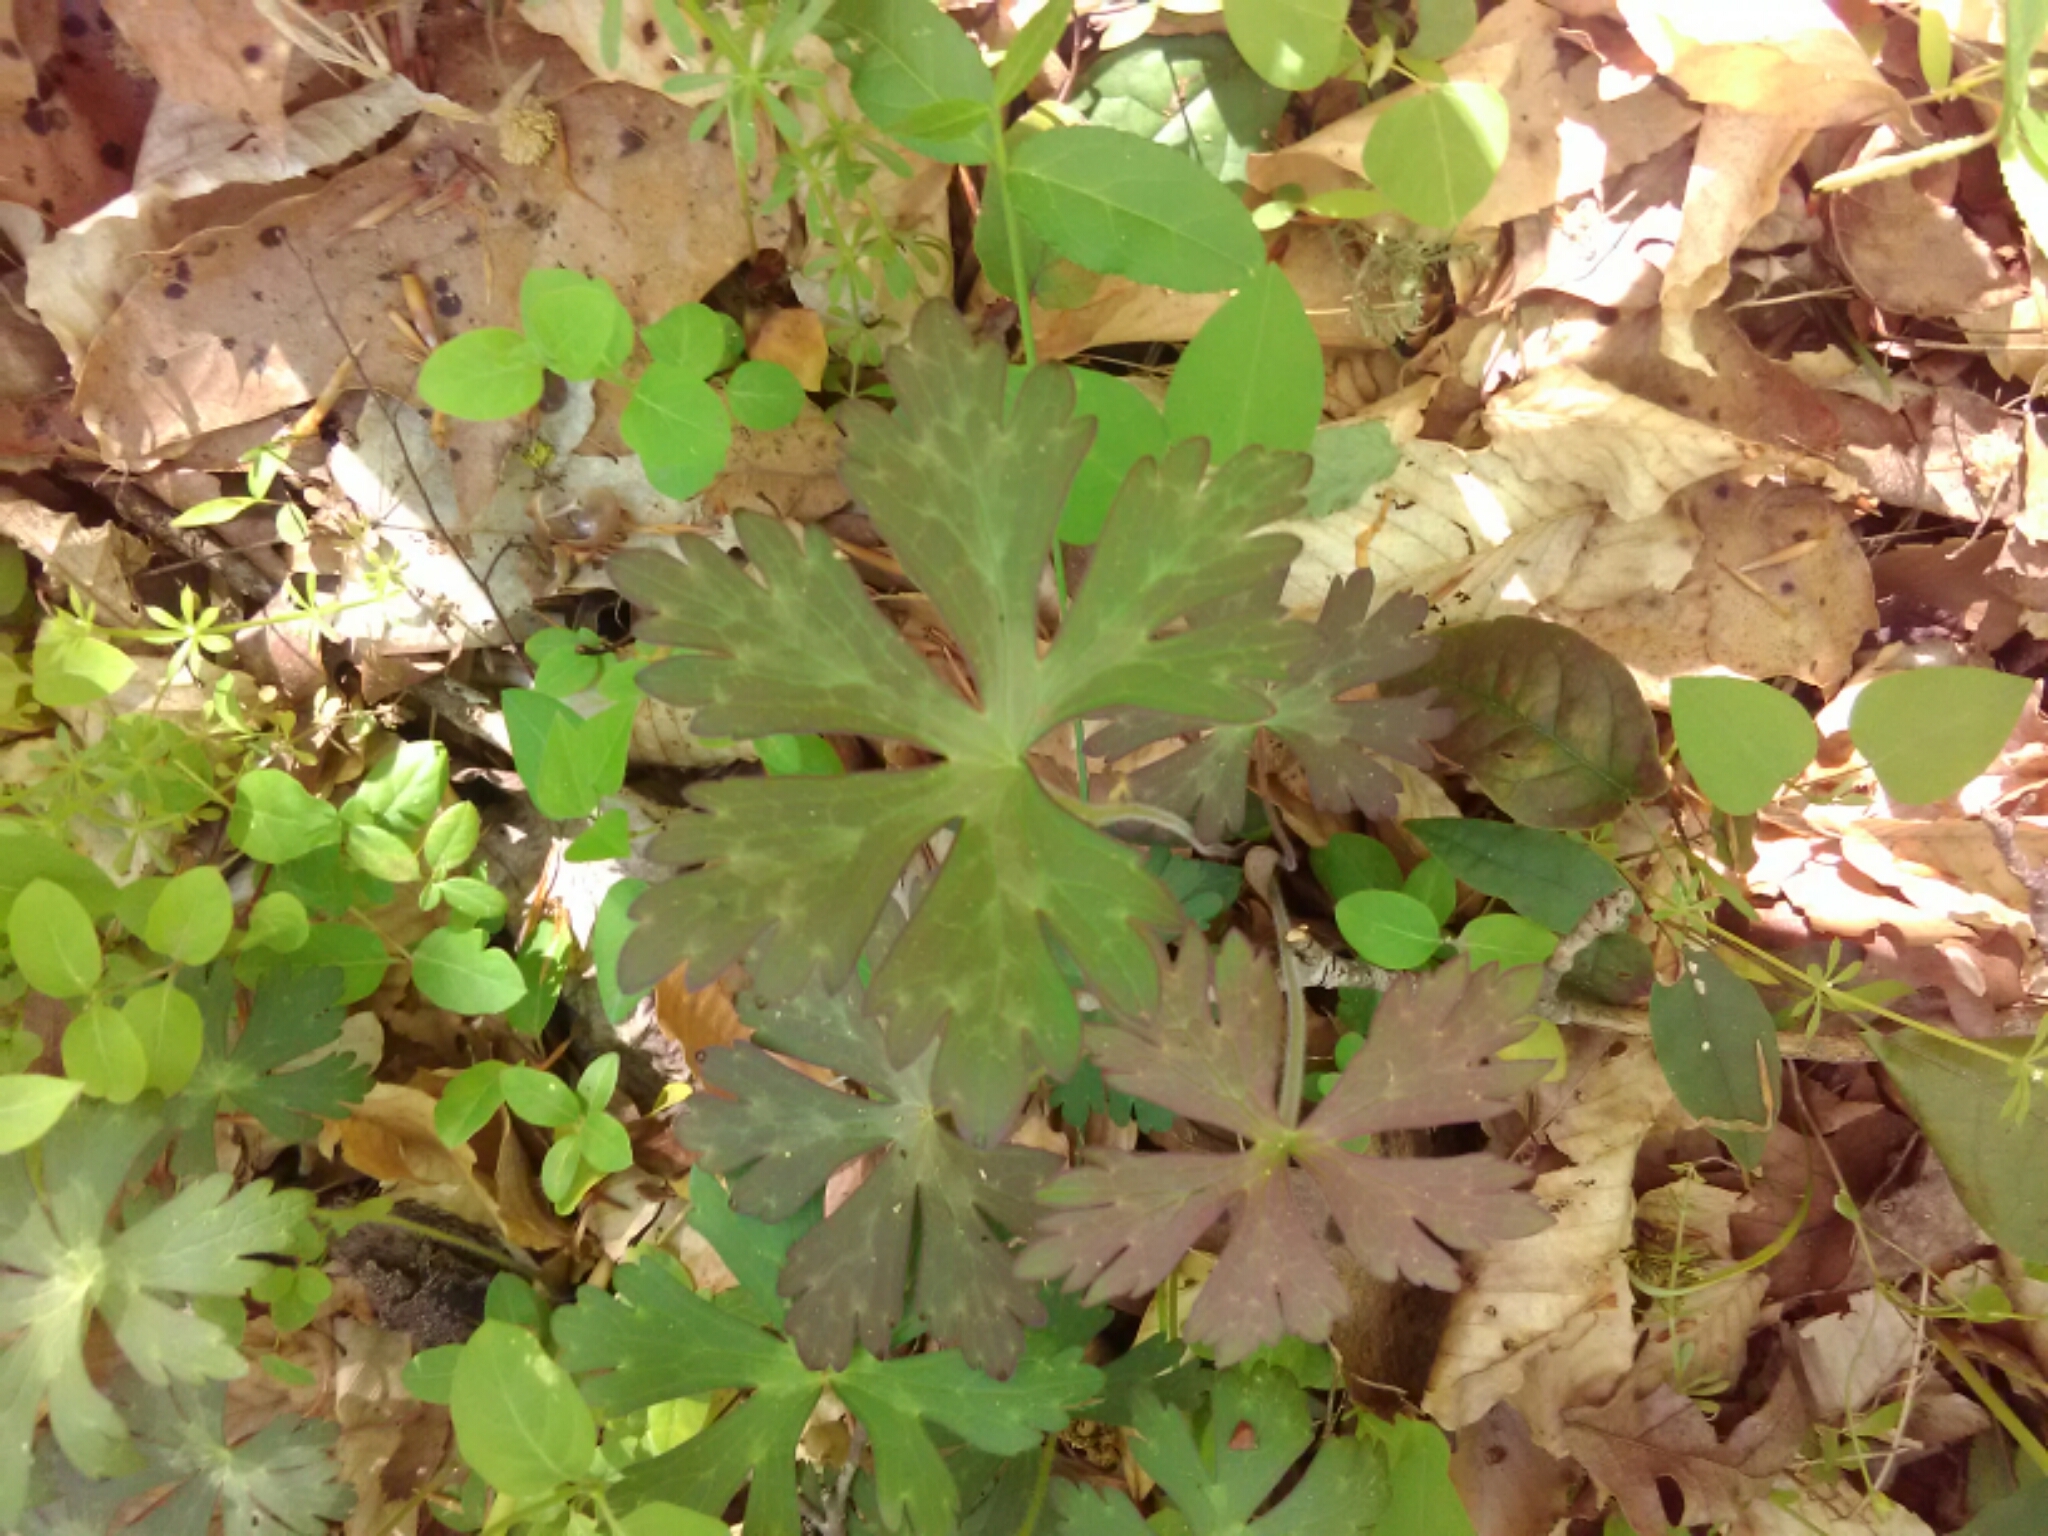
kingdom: Plantae
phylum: Tracheophyta
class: Magnoliopsida
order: Geraniales
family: Geraniaceae
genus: Geranium
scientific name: Geranium maculatum
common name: Spotted geranium
